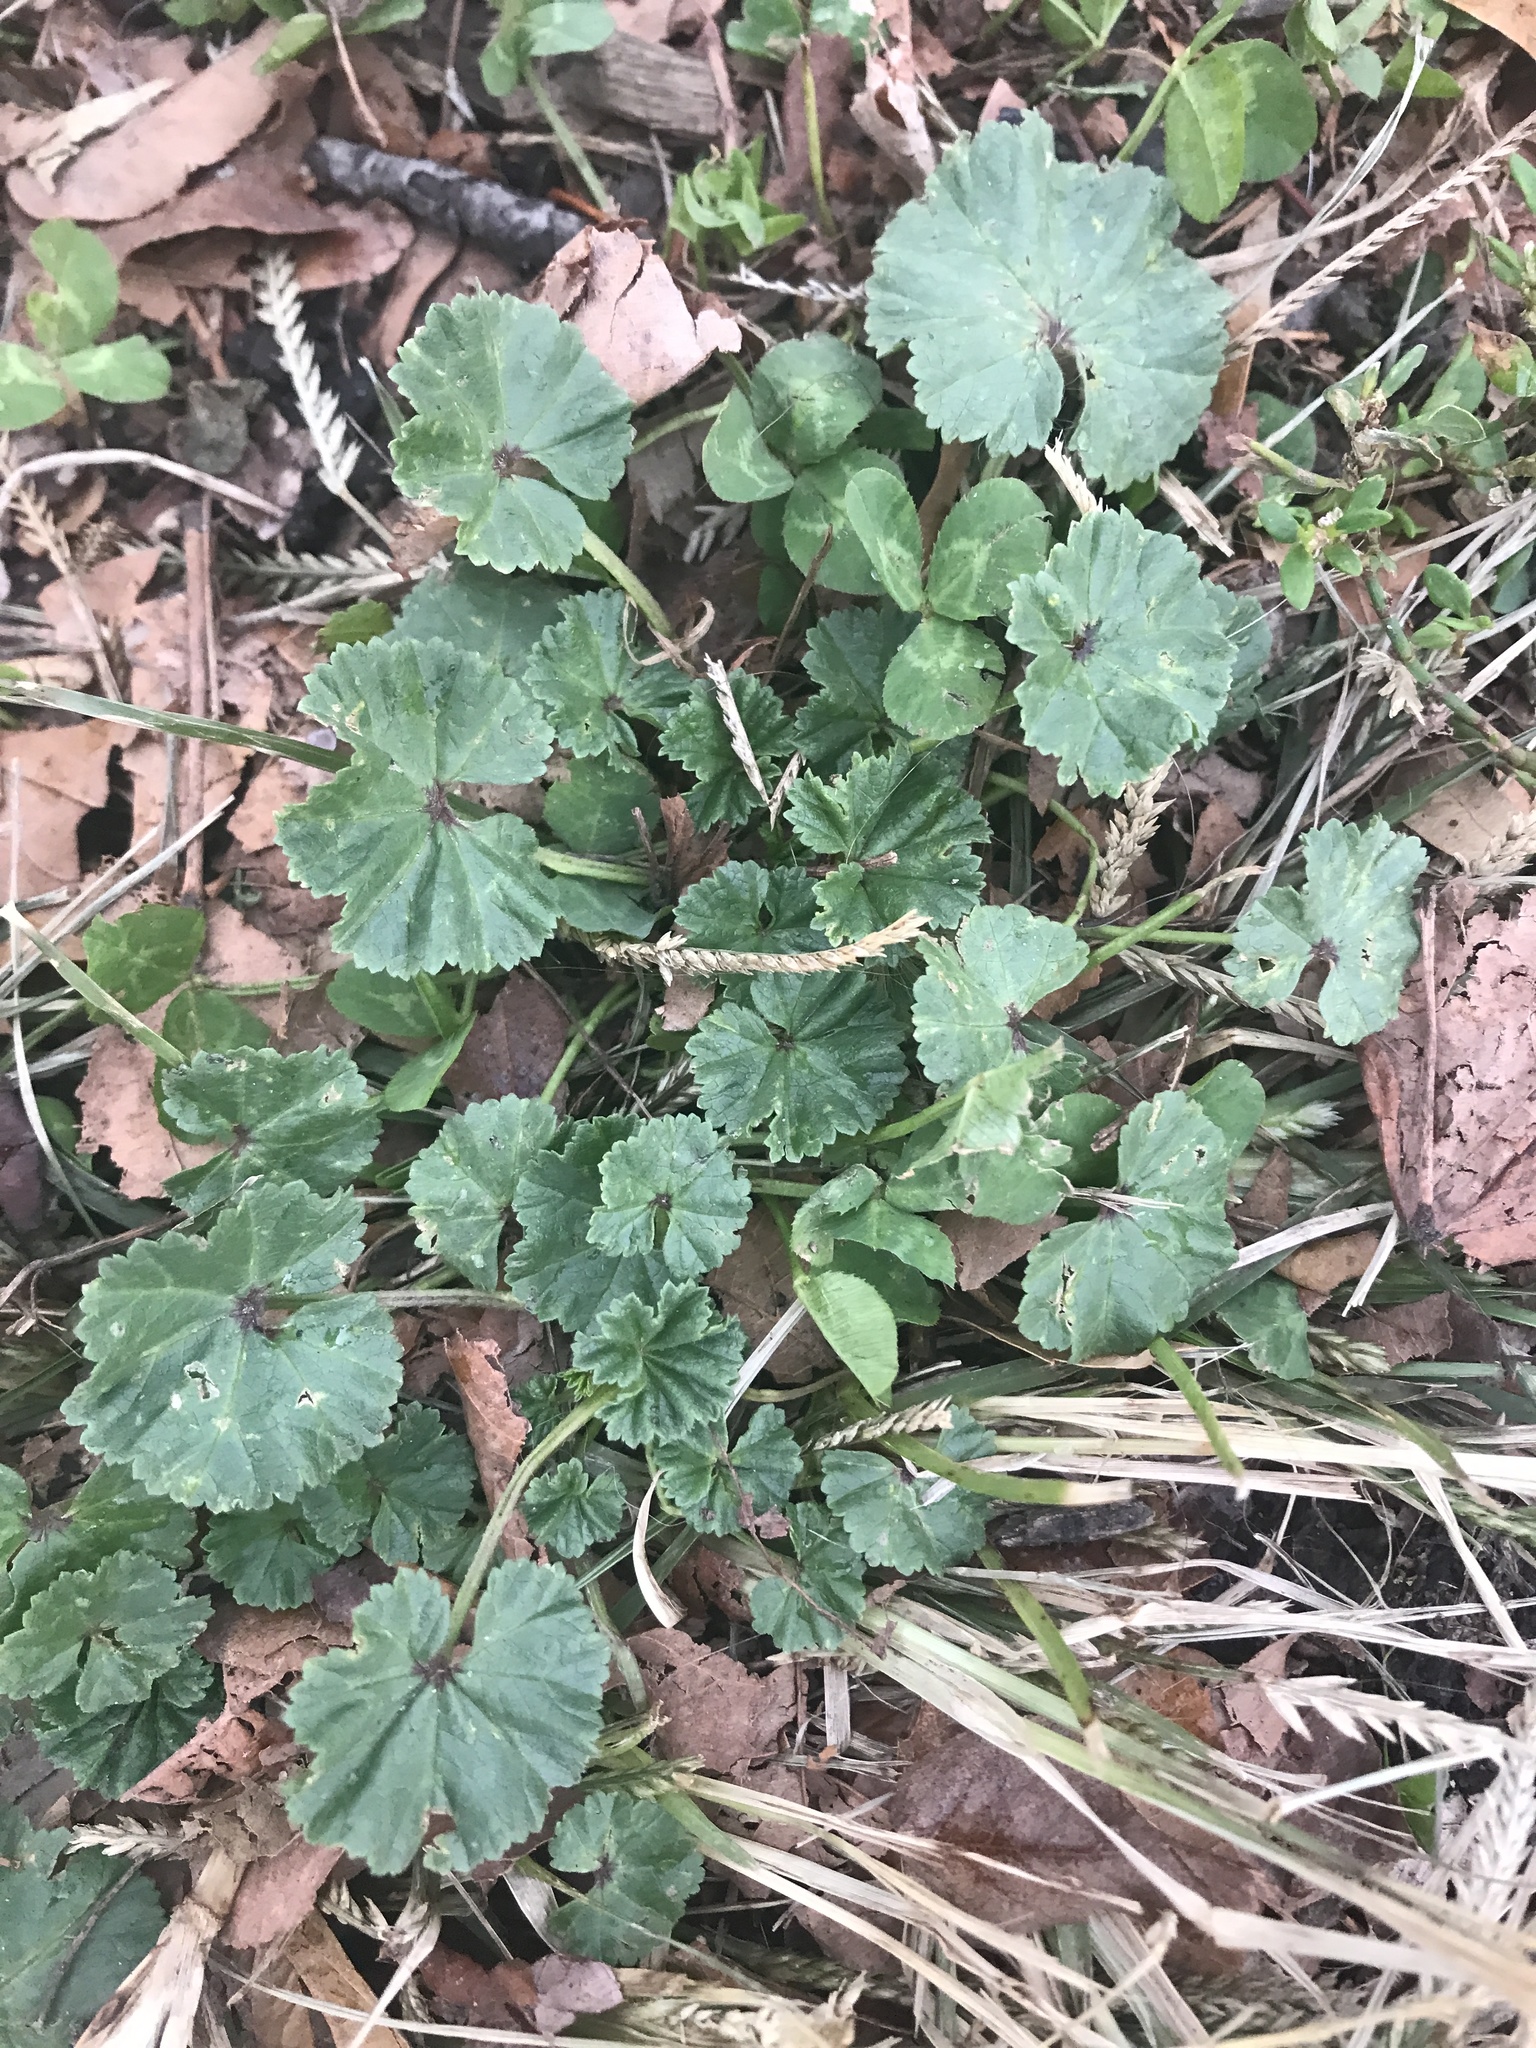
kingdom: Plantae
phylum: Tracheophyta
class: Magnoliopsida
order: Malvales
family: Malvaceae
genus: Malva
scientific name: Malva neglecta
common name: Common mallow
